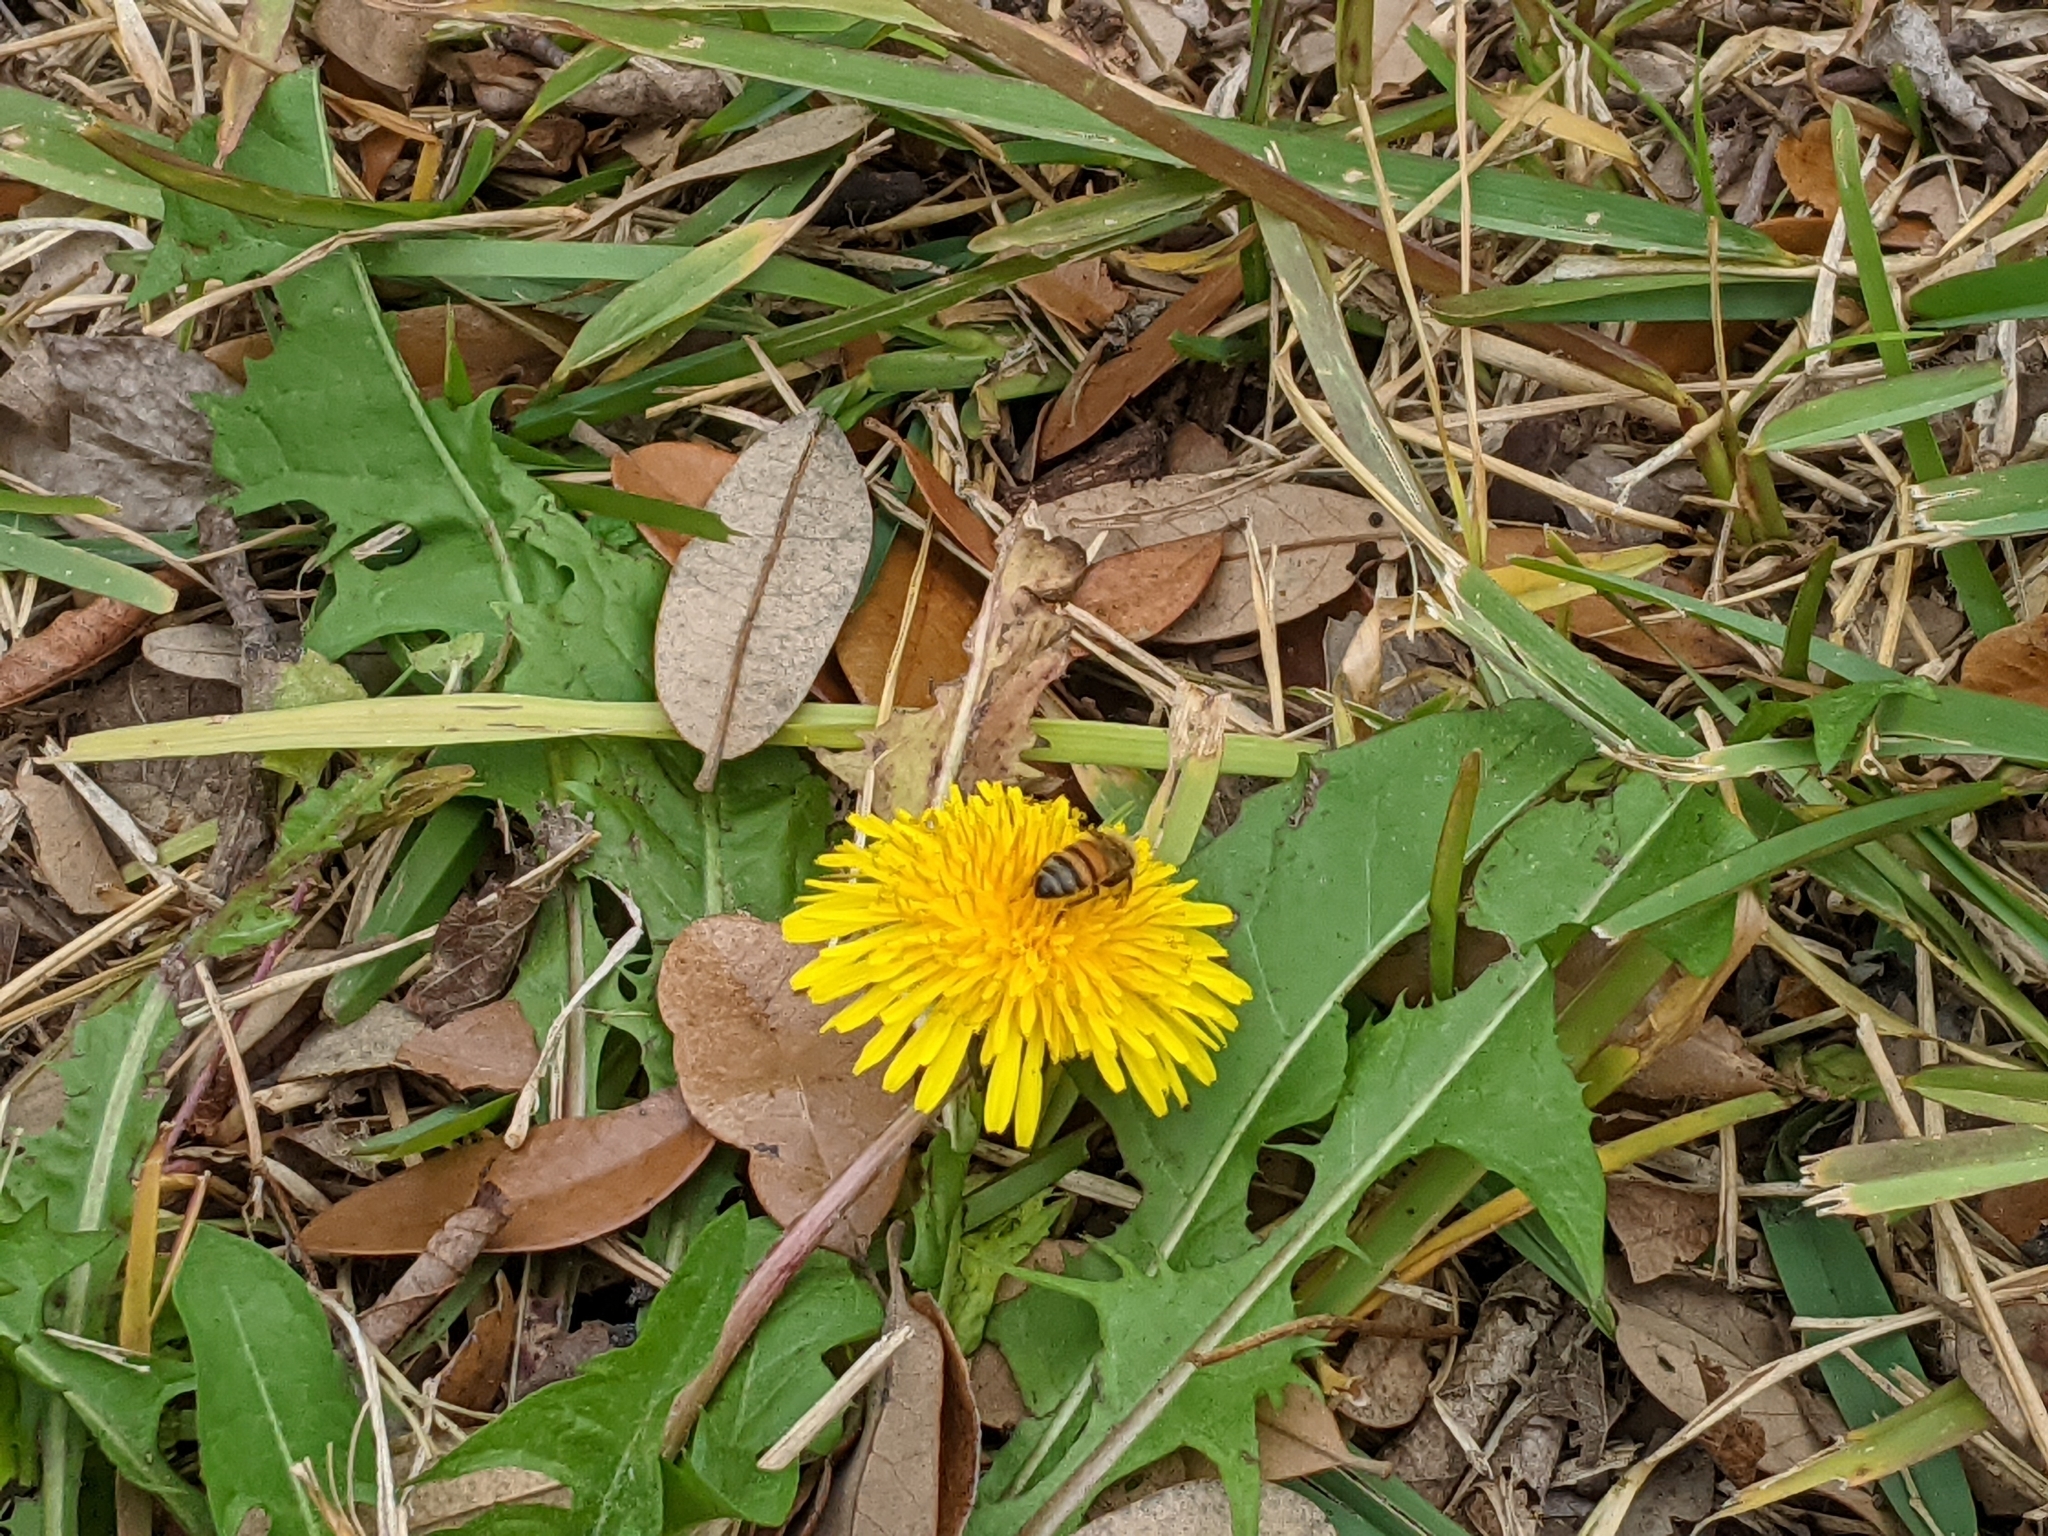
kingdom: Animalia
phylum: Arthropoda
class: Insecta
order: Hymenoptera
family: Apidae
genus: Apis
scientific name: Apis mellifera
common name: Honey bee
